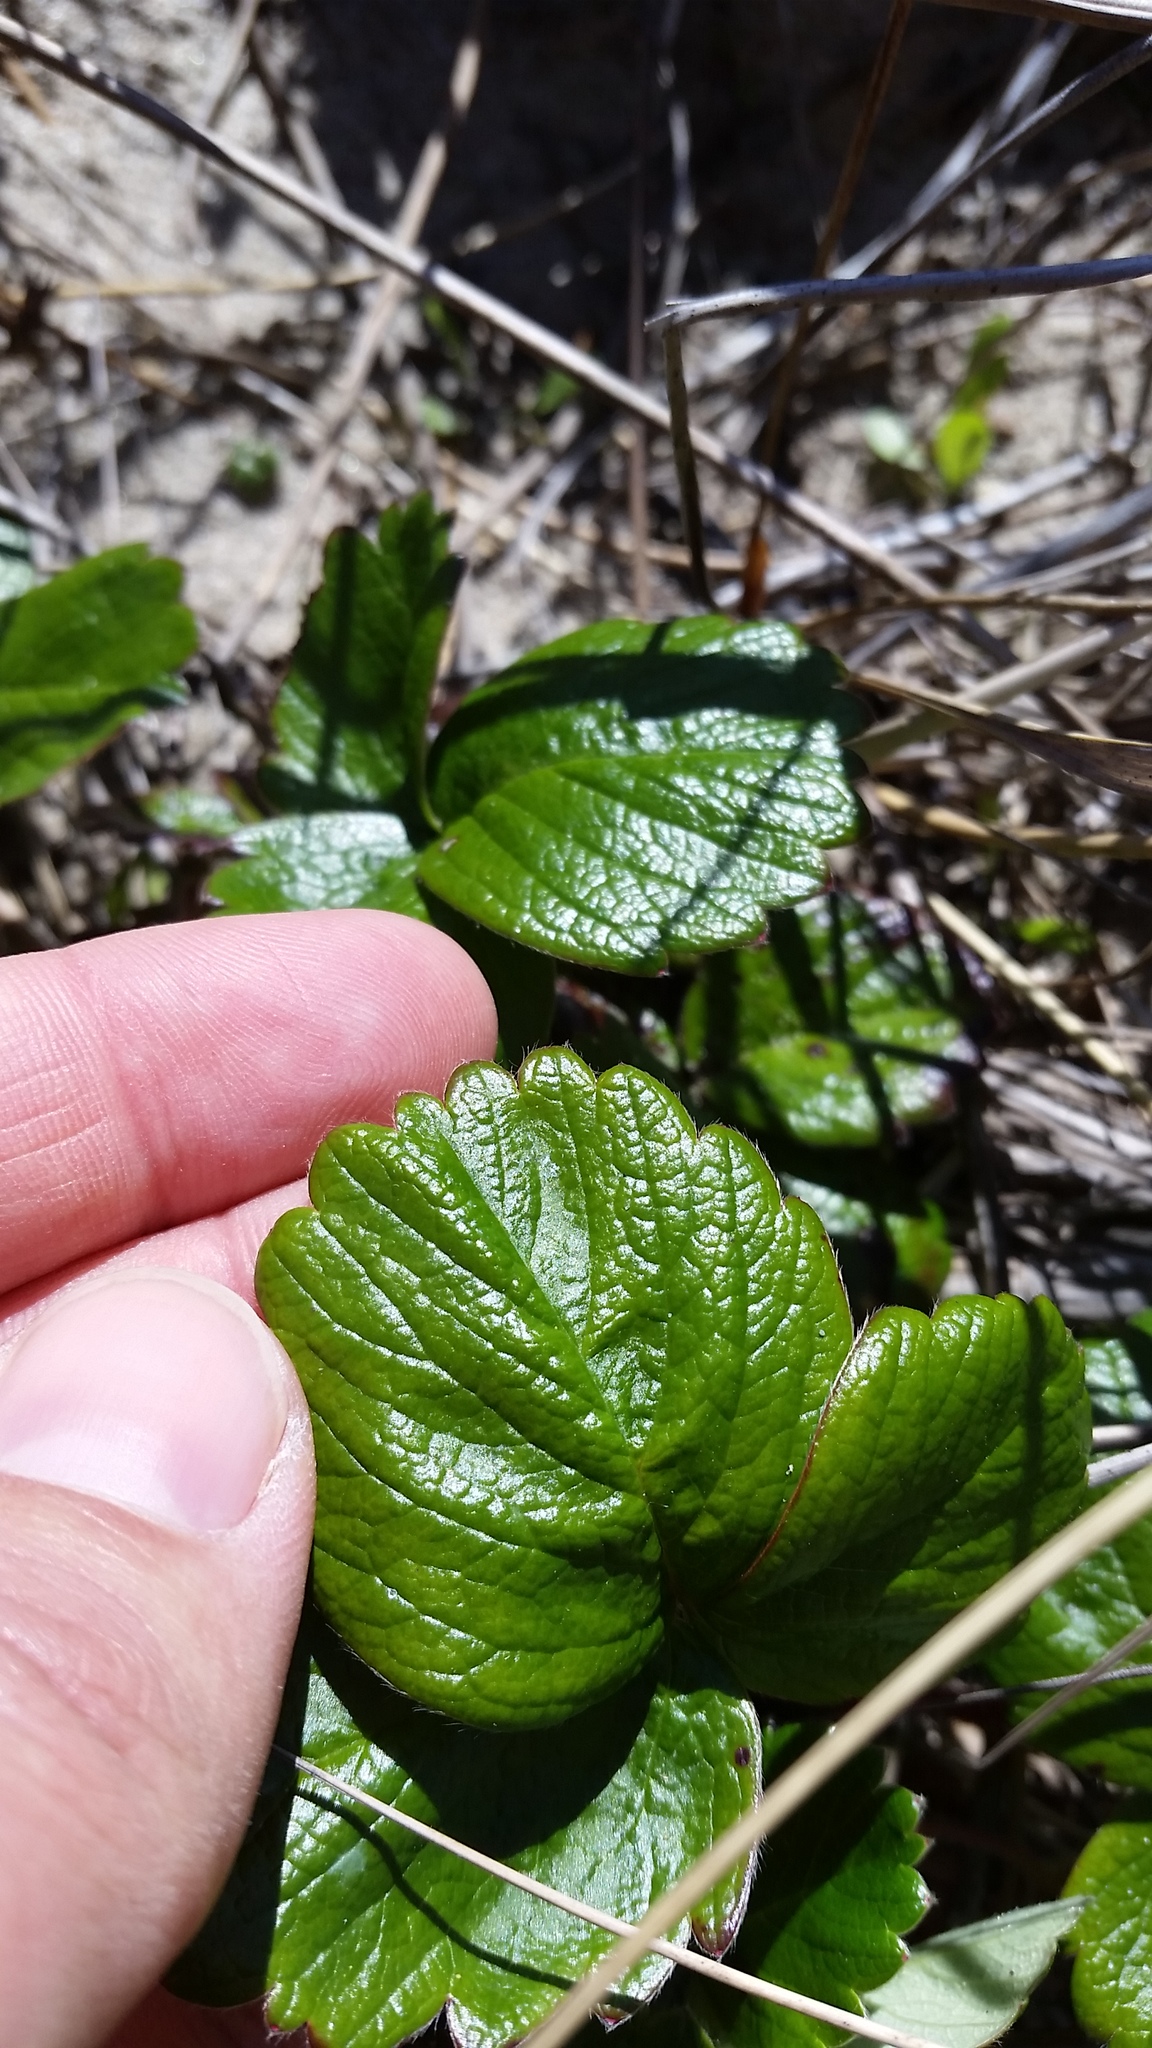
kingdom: Plantae
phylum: Tracheophyta
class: Magnoliopsida
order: Rosales
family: Rosaceae
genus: Fragaria
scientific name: Fragaria chiloensis
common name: Beach strawberry
